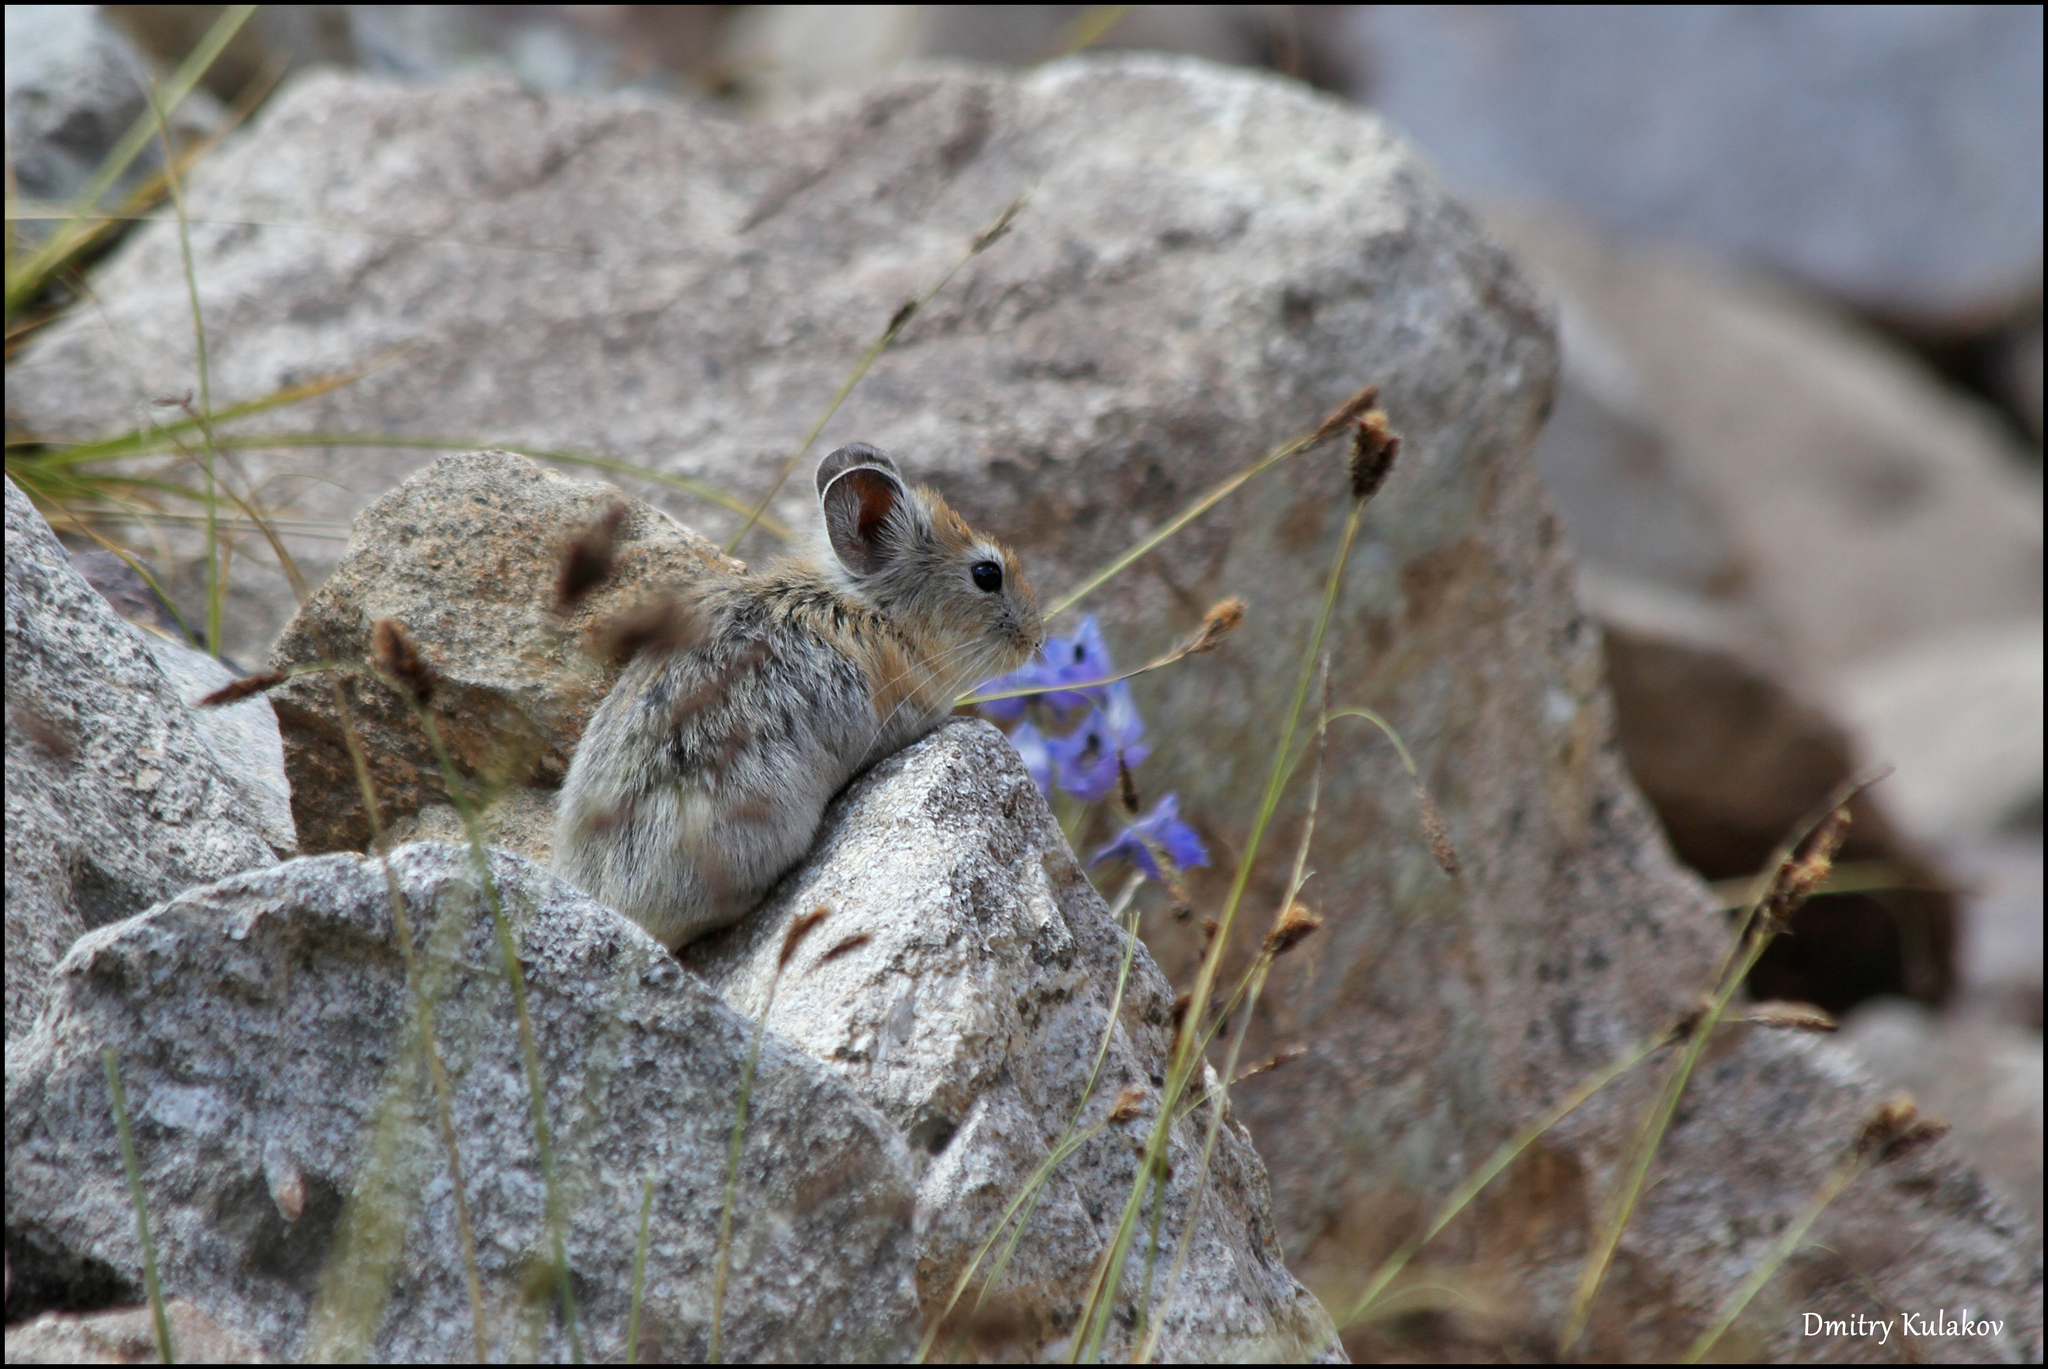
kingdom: Animalia
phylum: Chordata
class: Mammalia
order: Lagomorpha
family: Ochotonidae
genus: Ochotona
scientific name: Ochotona macrotis
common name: Large-eared pika
